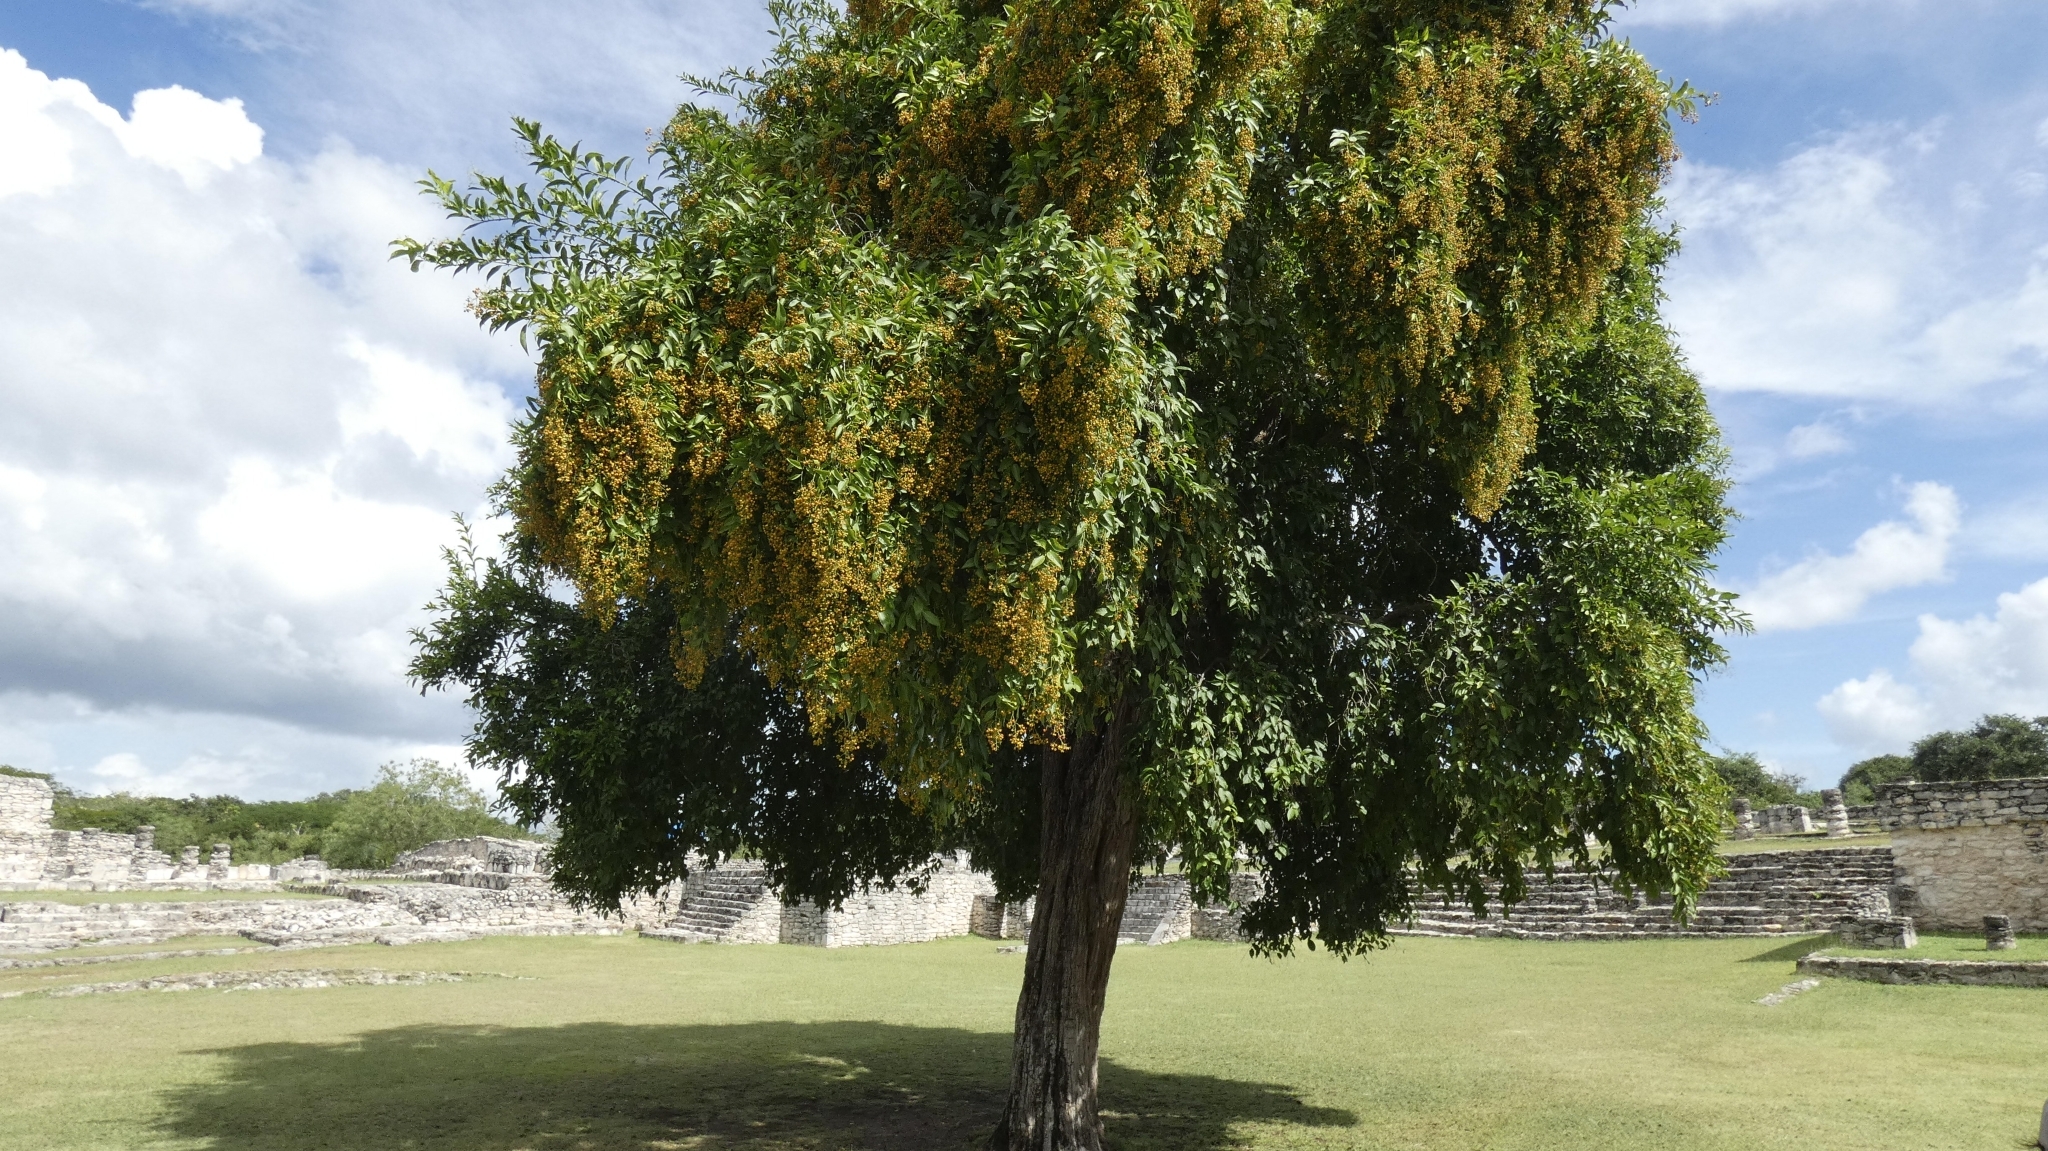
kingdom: Plantae
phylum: Tracheophyta
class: Magnoliopsida
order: Boraginales
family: Ehretiaceae
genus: Ehretia
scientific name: Ehretia tinifolia
